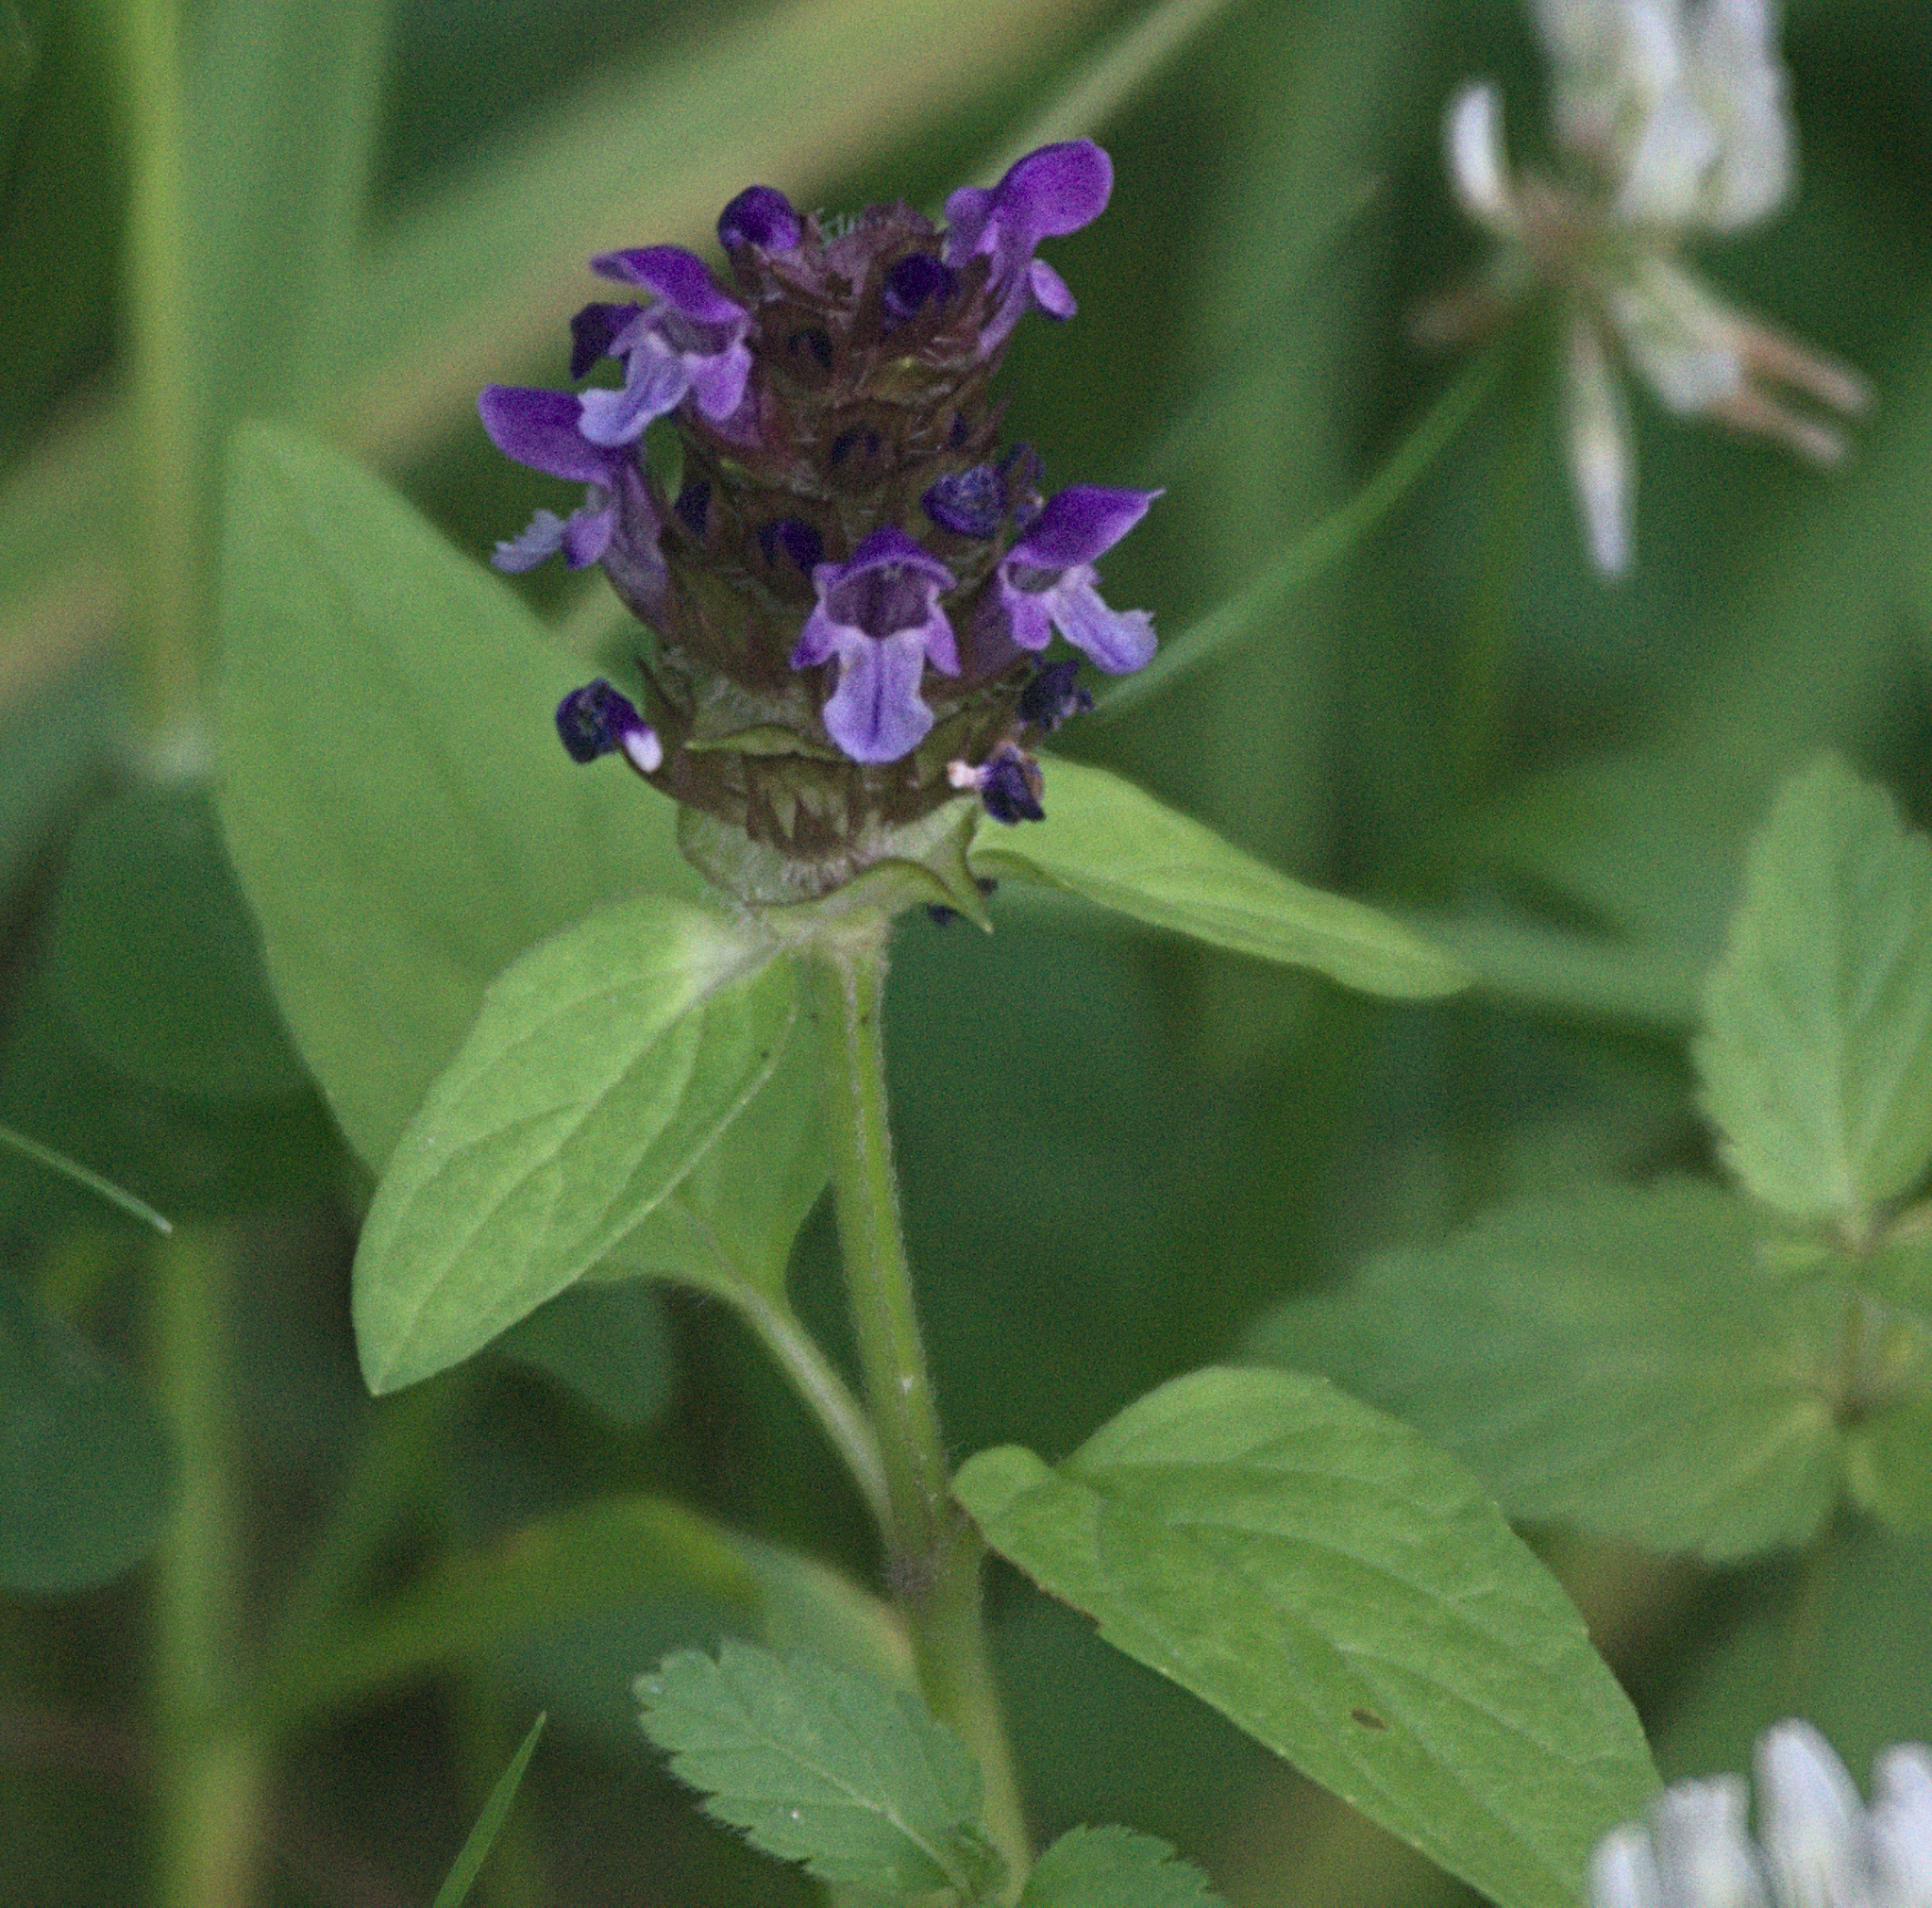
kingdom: Plantae
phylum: Tracheophyta
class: Magnoliopsida
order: Lamiales
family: Lamiaceae
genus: Prunella
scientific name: Prunella vulgaris
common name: Heal-all
